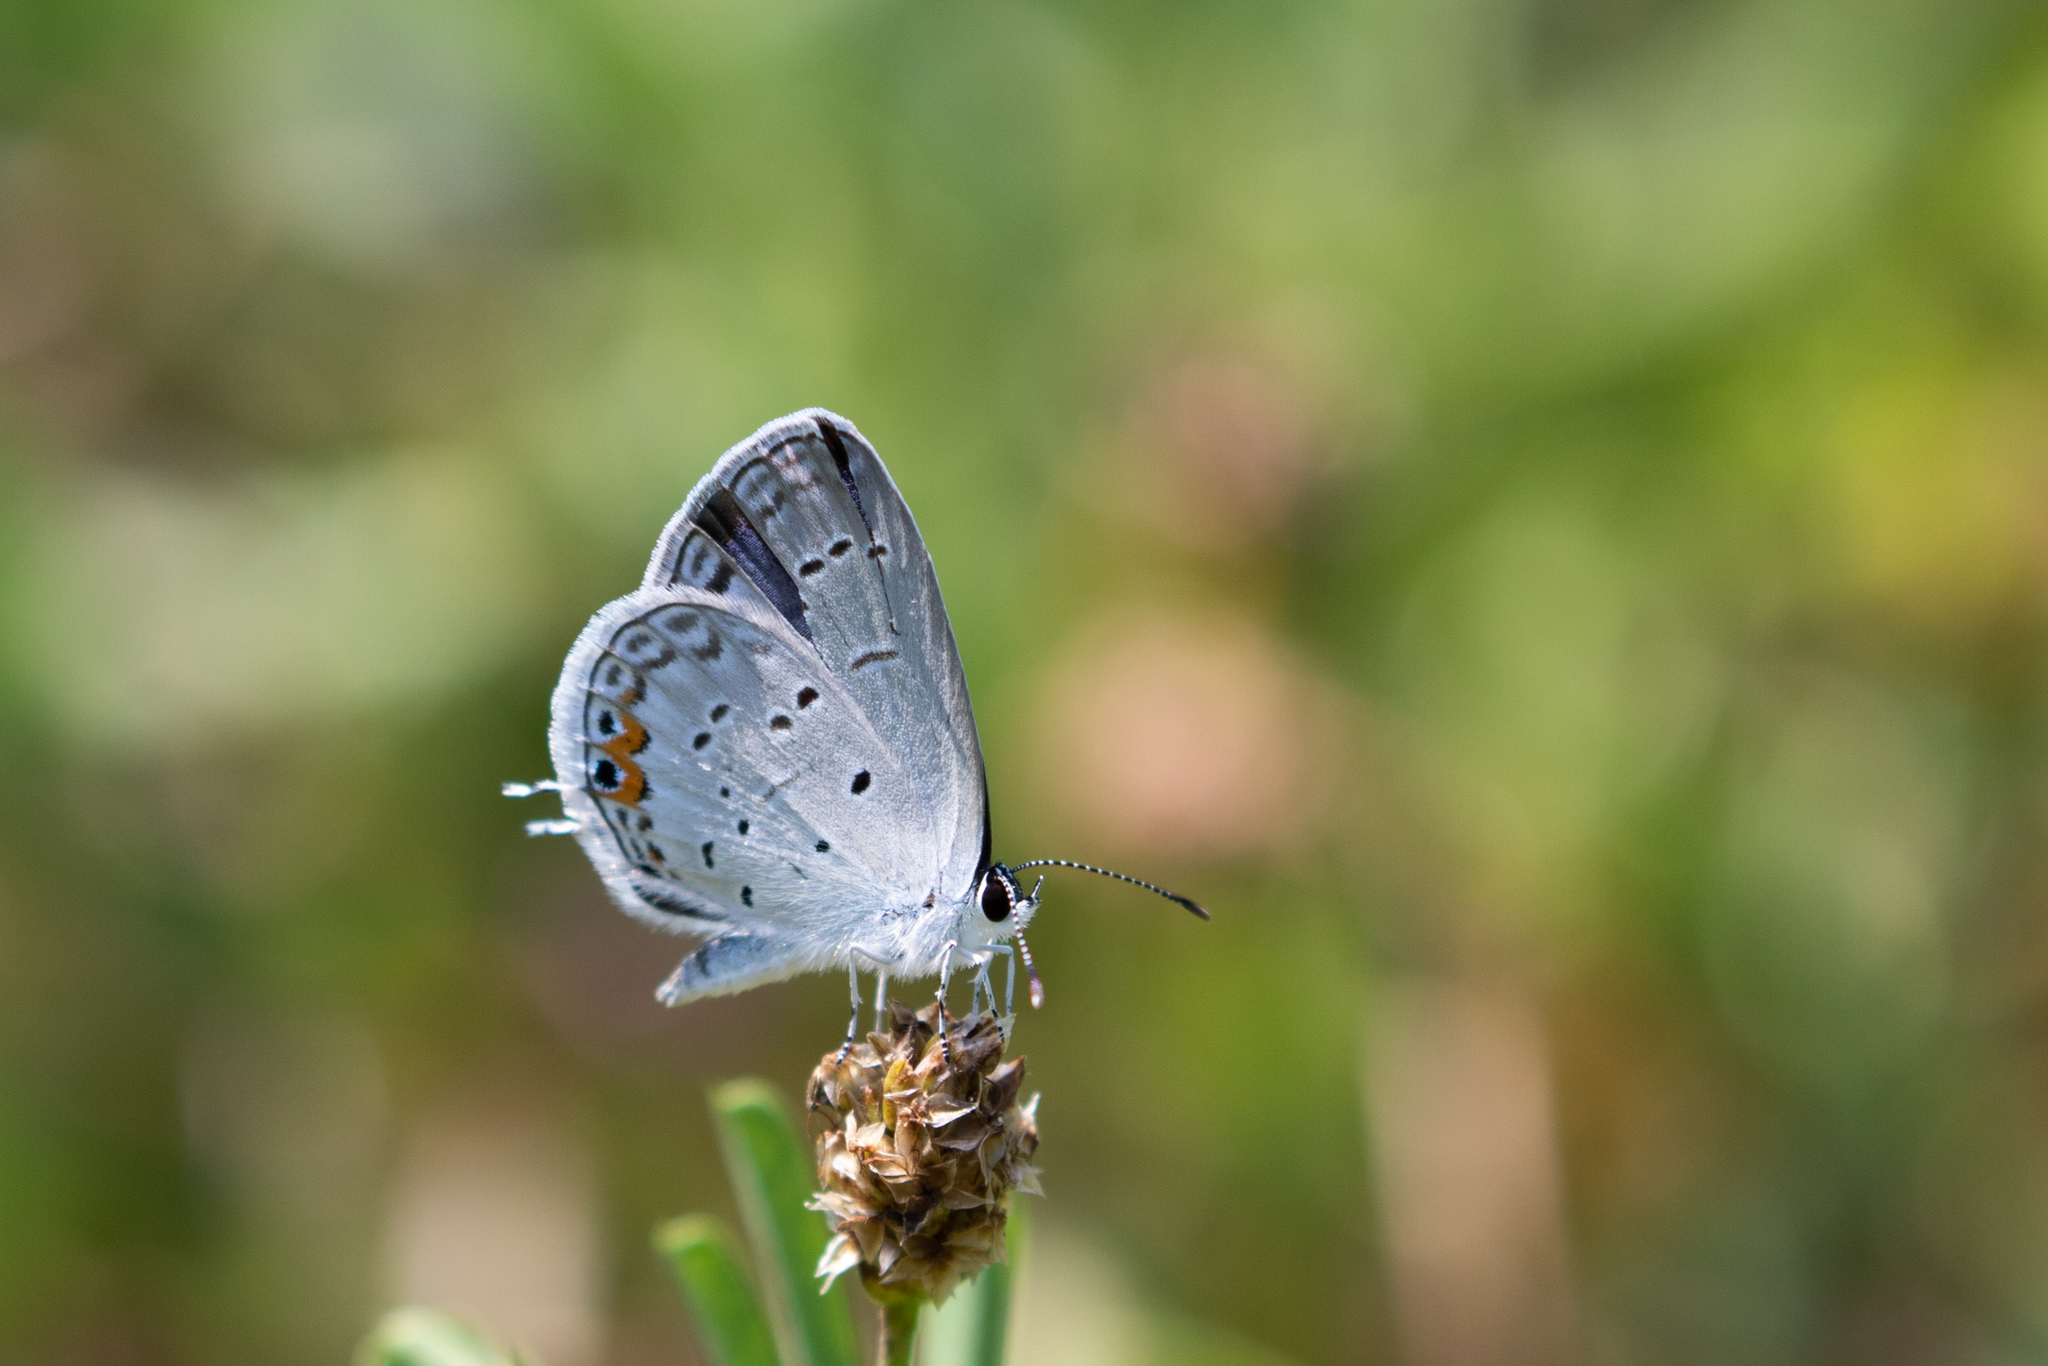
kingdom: Animalia
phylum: Arthropoda
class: Insecta
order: Lepidoptera
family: Lycaenidae
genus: Elkalyce
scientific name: Elkalyce comyntas
